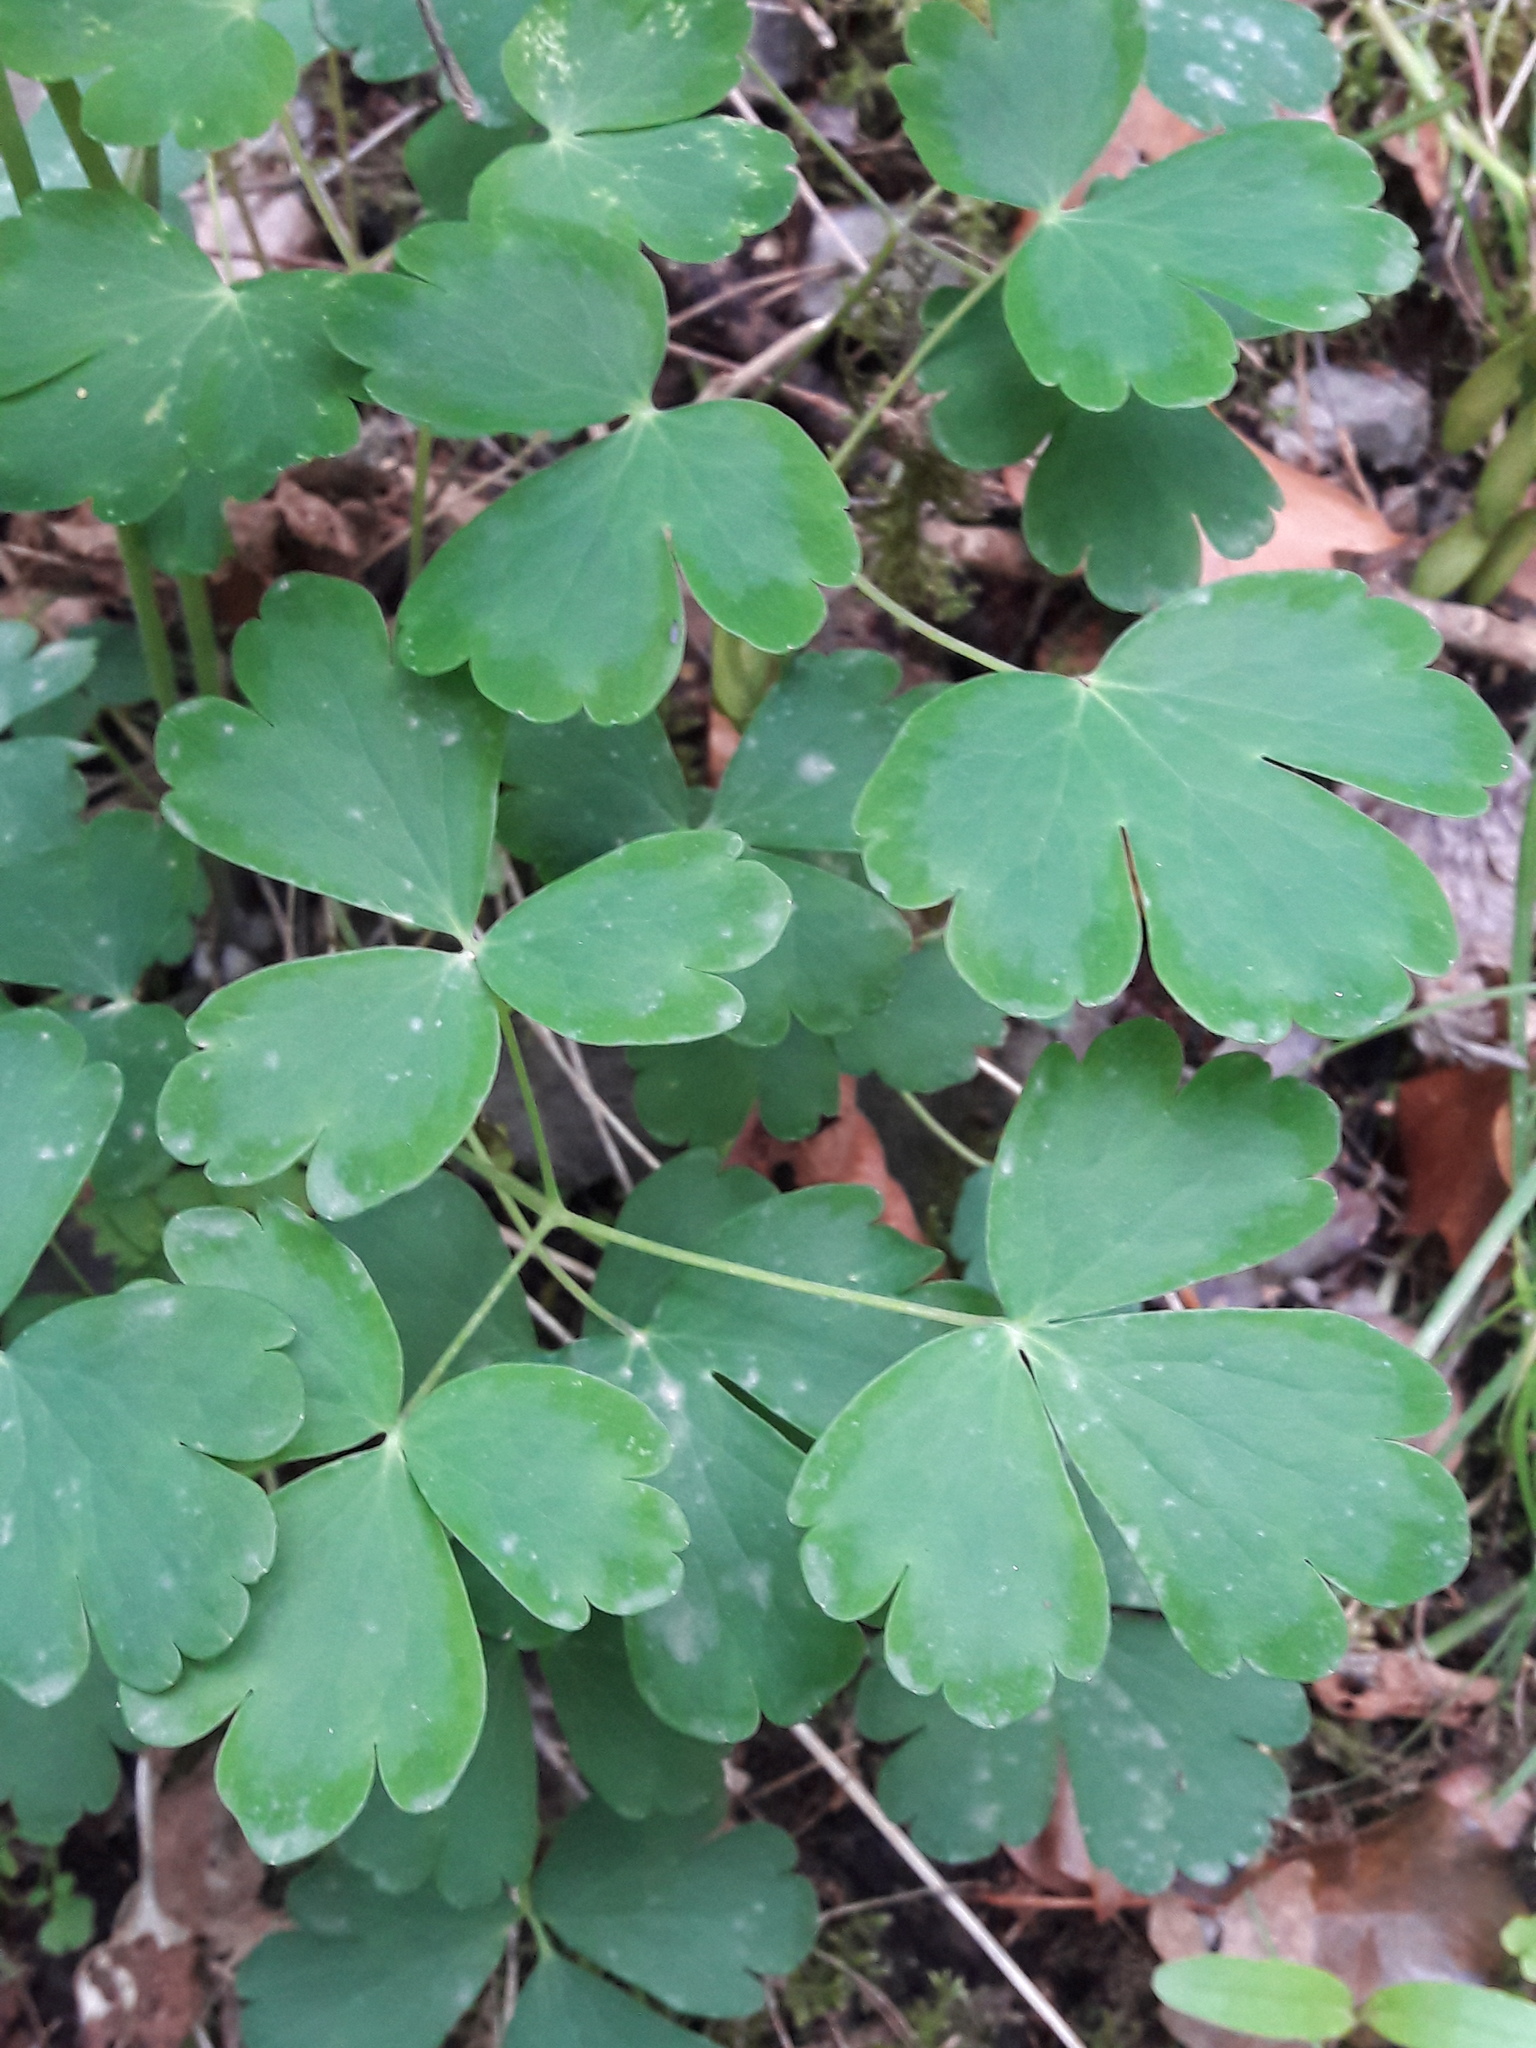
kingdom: Plantae
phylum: Tracheophyta
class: Magnoliopsida
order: Ranunculales
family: Ranunculaceae
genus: Aquilegia
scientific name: Aquilegia vulgaris
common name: Columbine
